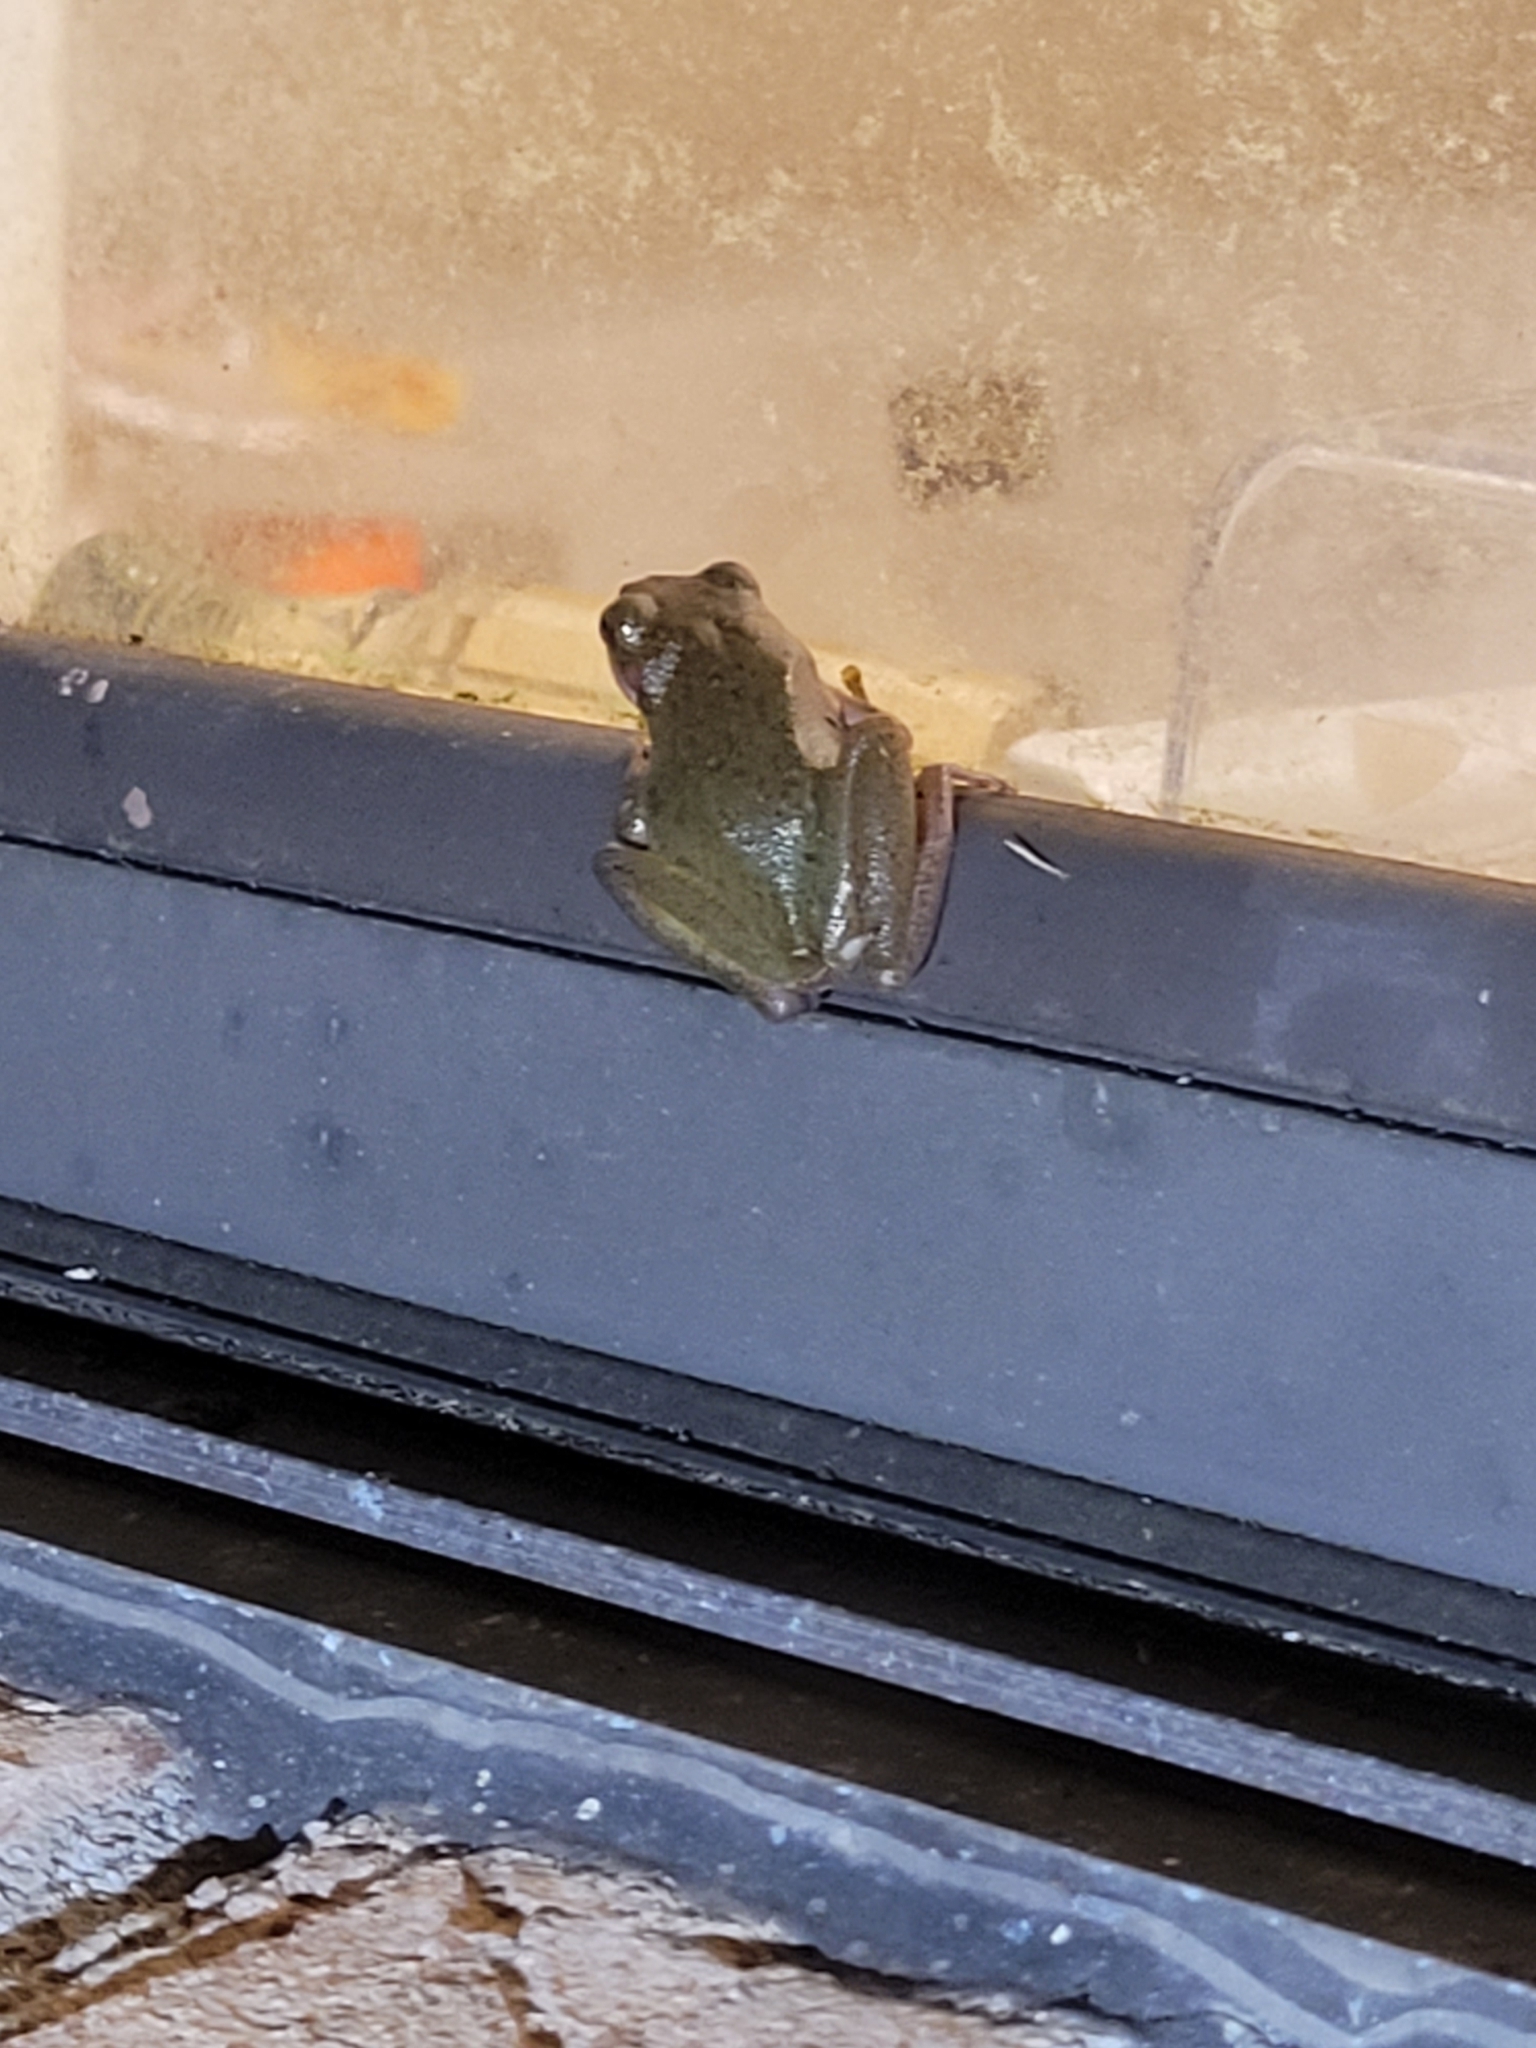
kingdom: Animalia
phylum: Chordata
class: Amphibia
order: Anura
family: Hylidae
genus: Dryophytes
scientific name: Dryophytes squirellus
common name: Squirrel treefrog
